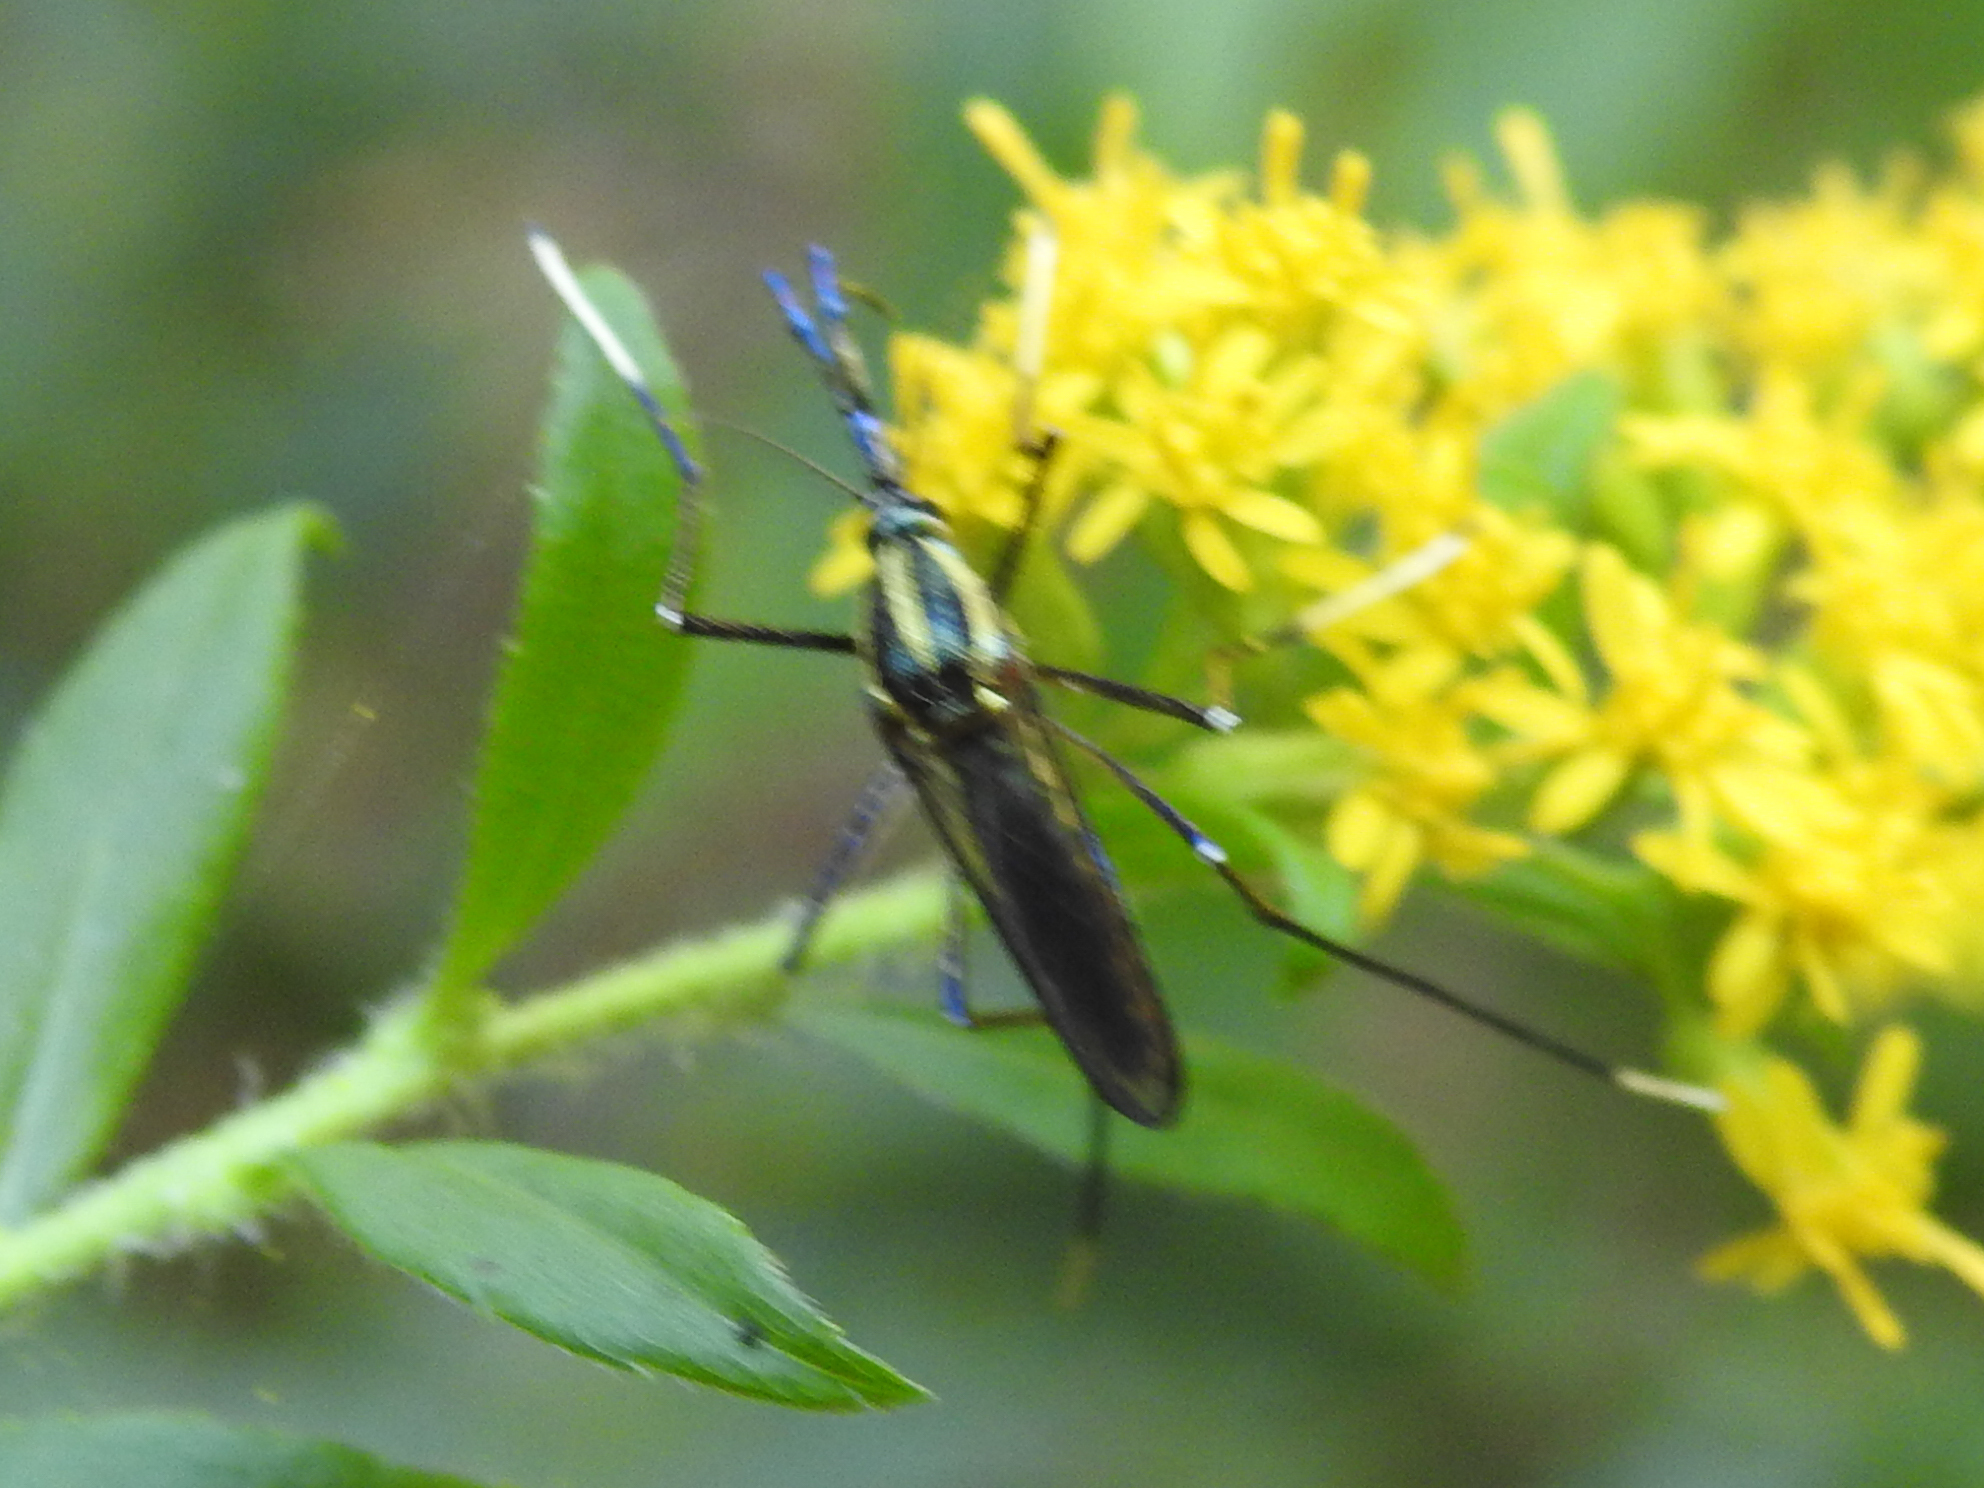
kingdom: Animalia
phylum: Arthropoda
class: Insecta
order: Diptera
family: Culicidae
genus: Toxorhynchites
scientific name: Toxorhynchites rutilus
